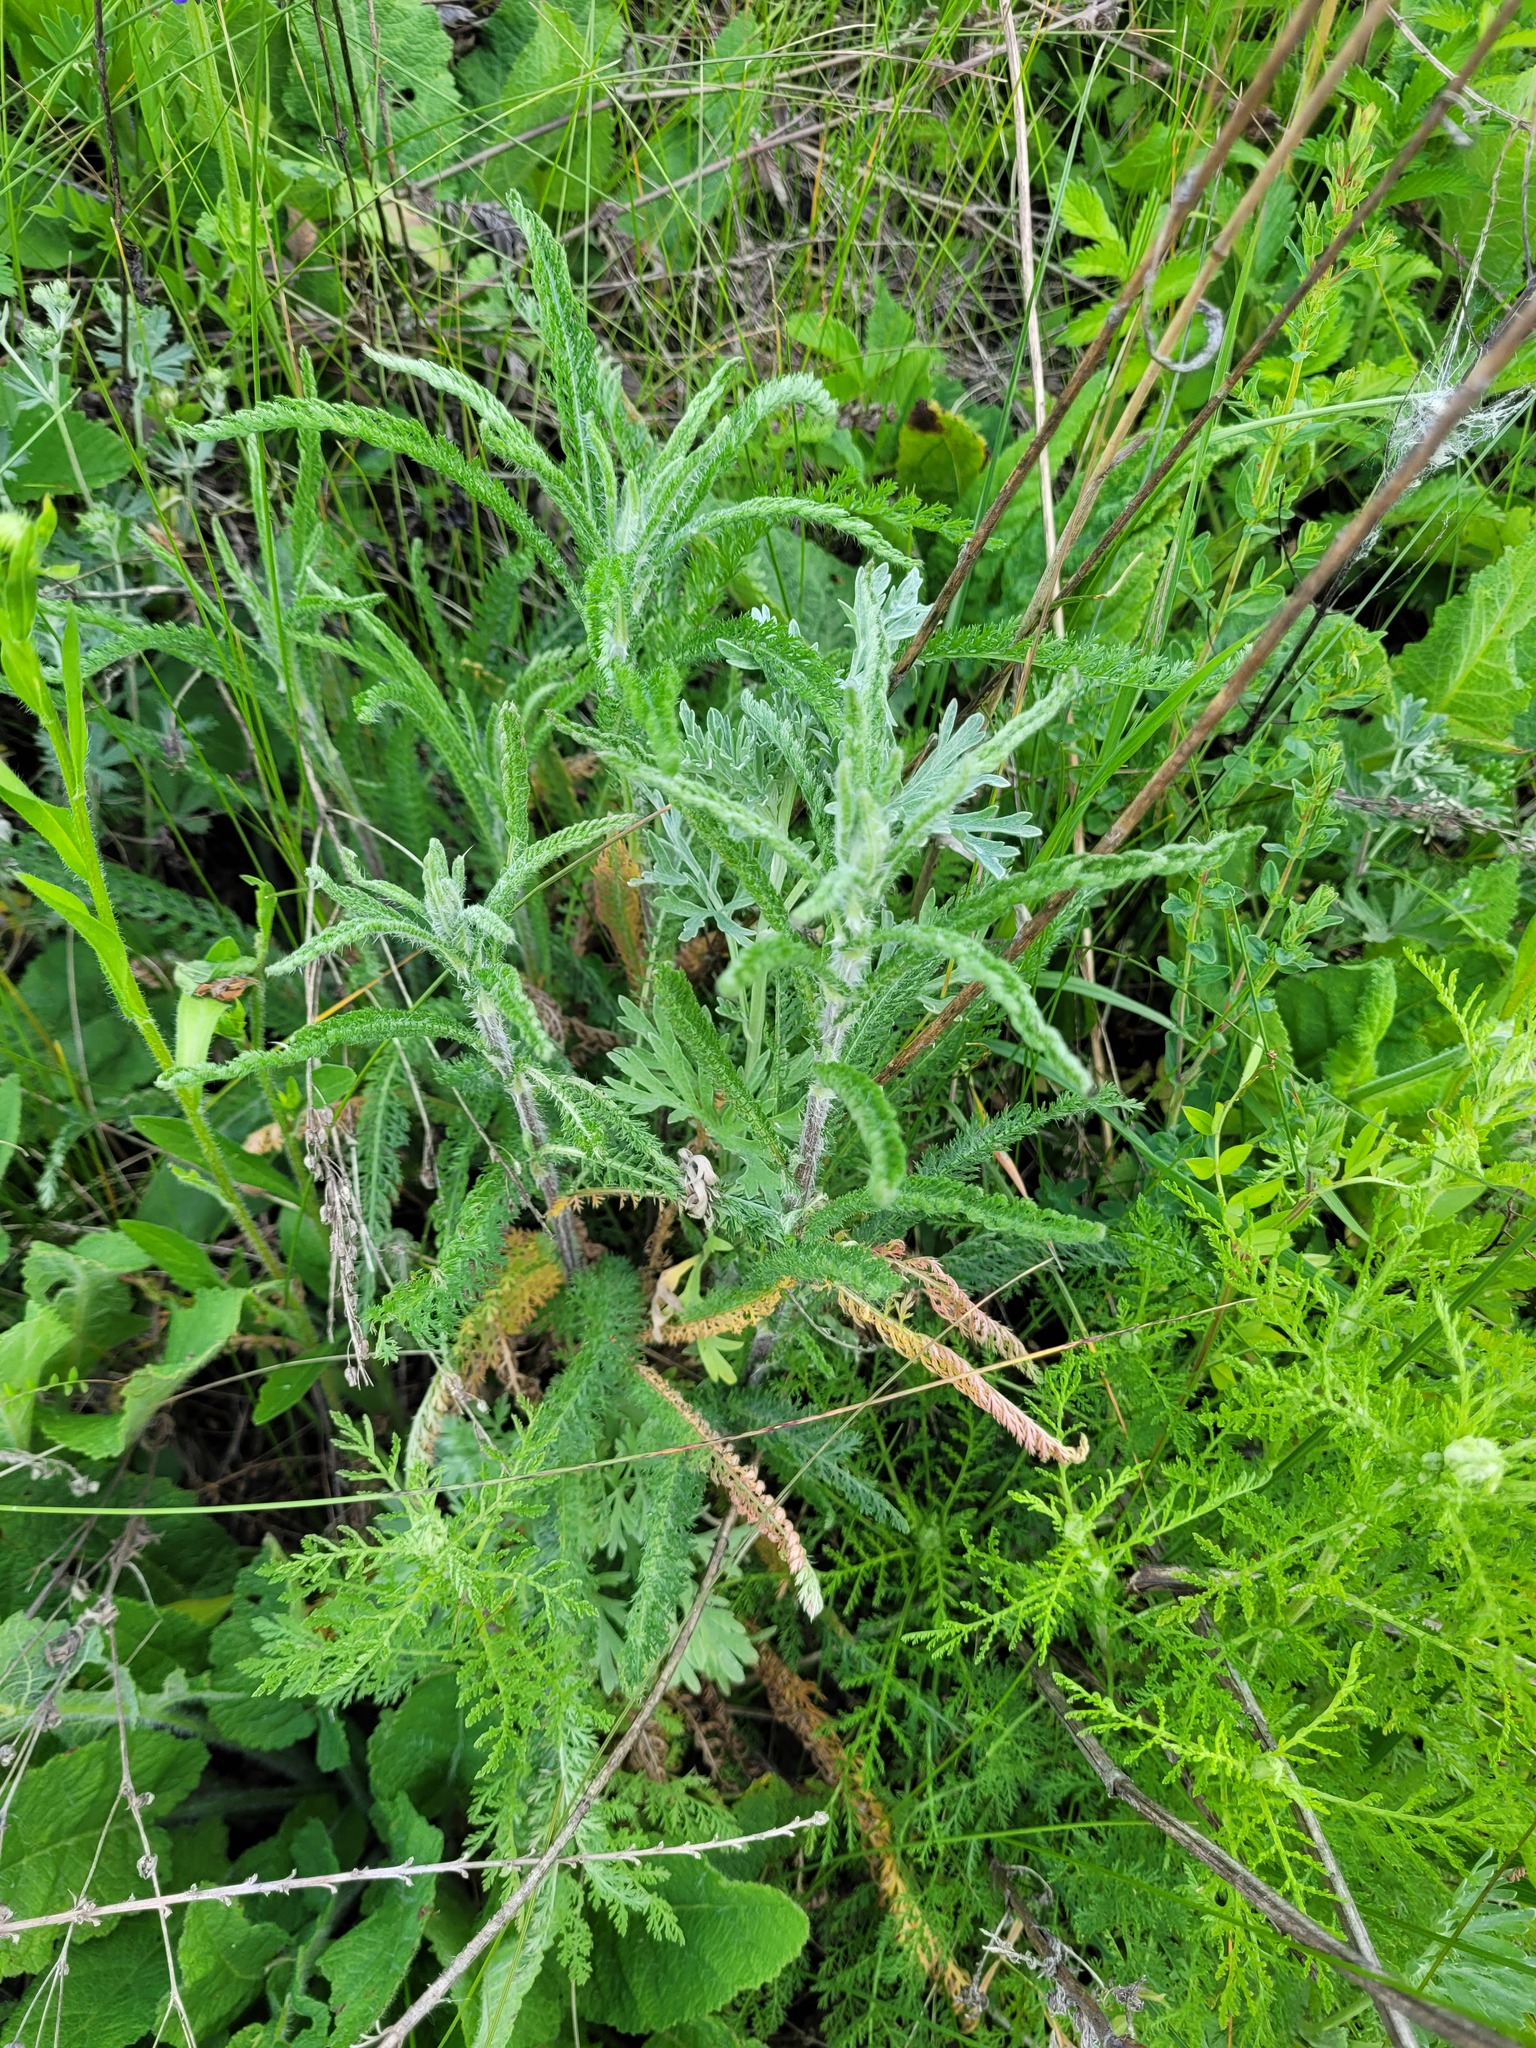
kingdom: Plantae
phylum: Tracheophyta
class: Magnoliopsida
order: Asterales
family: Asteraceae
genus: Achillea
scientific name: Achillea setacea
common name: Bristly yarrow
